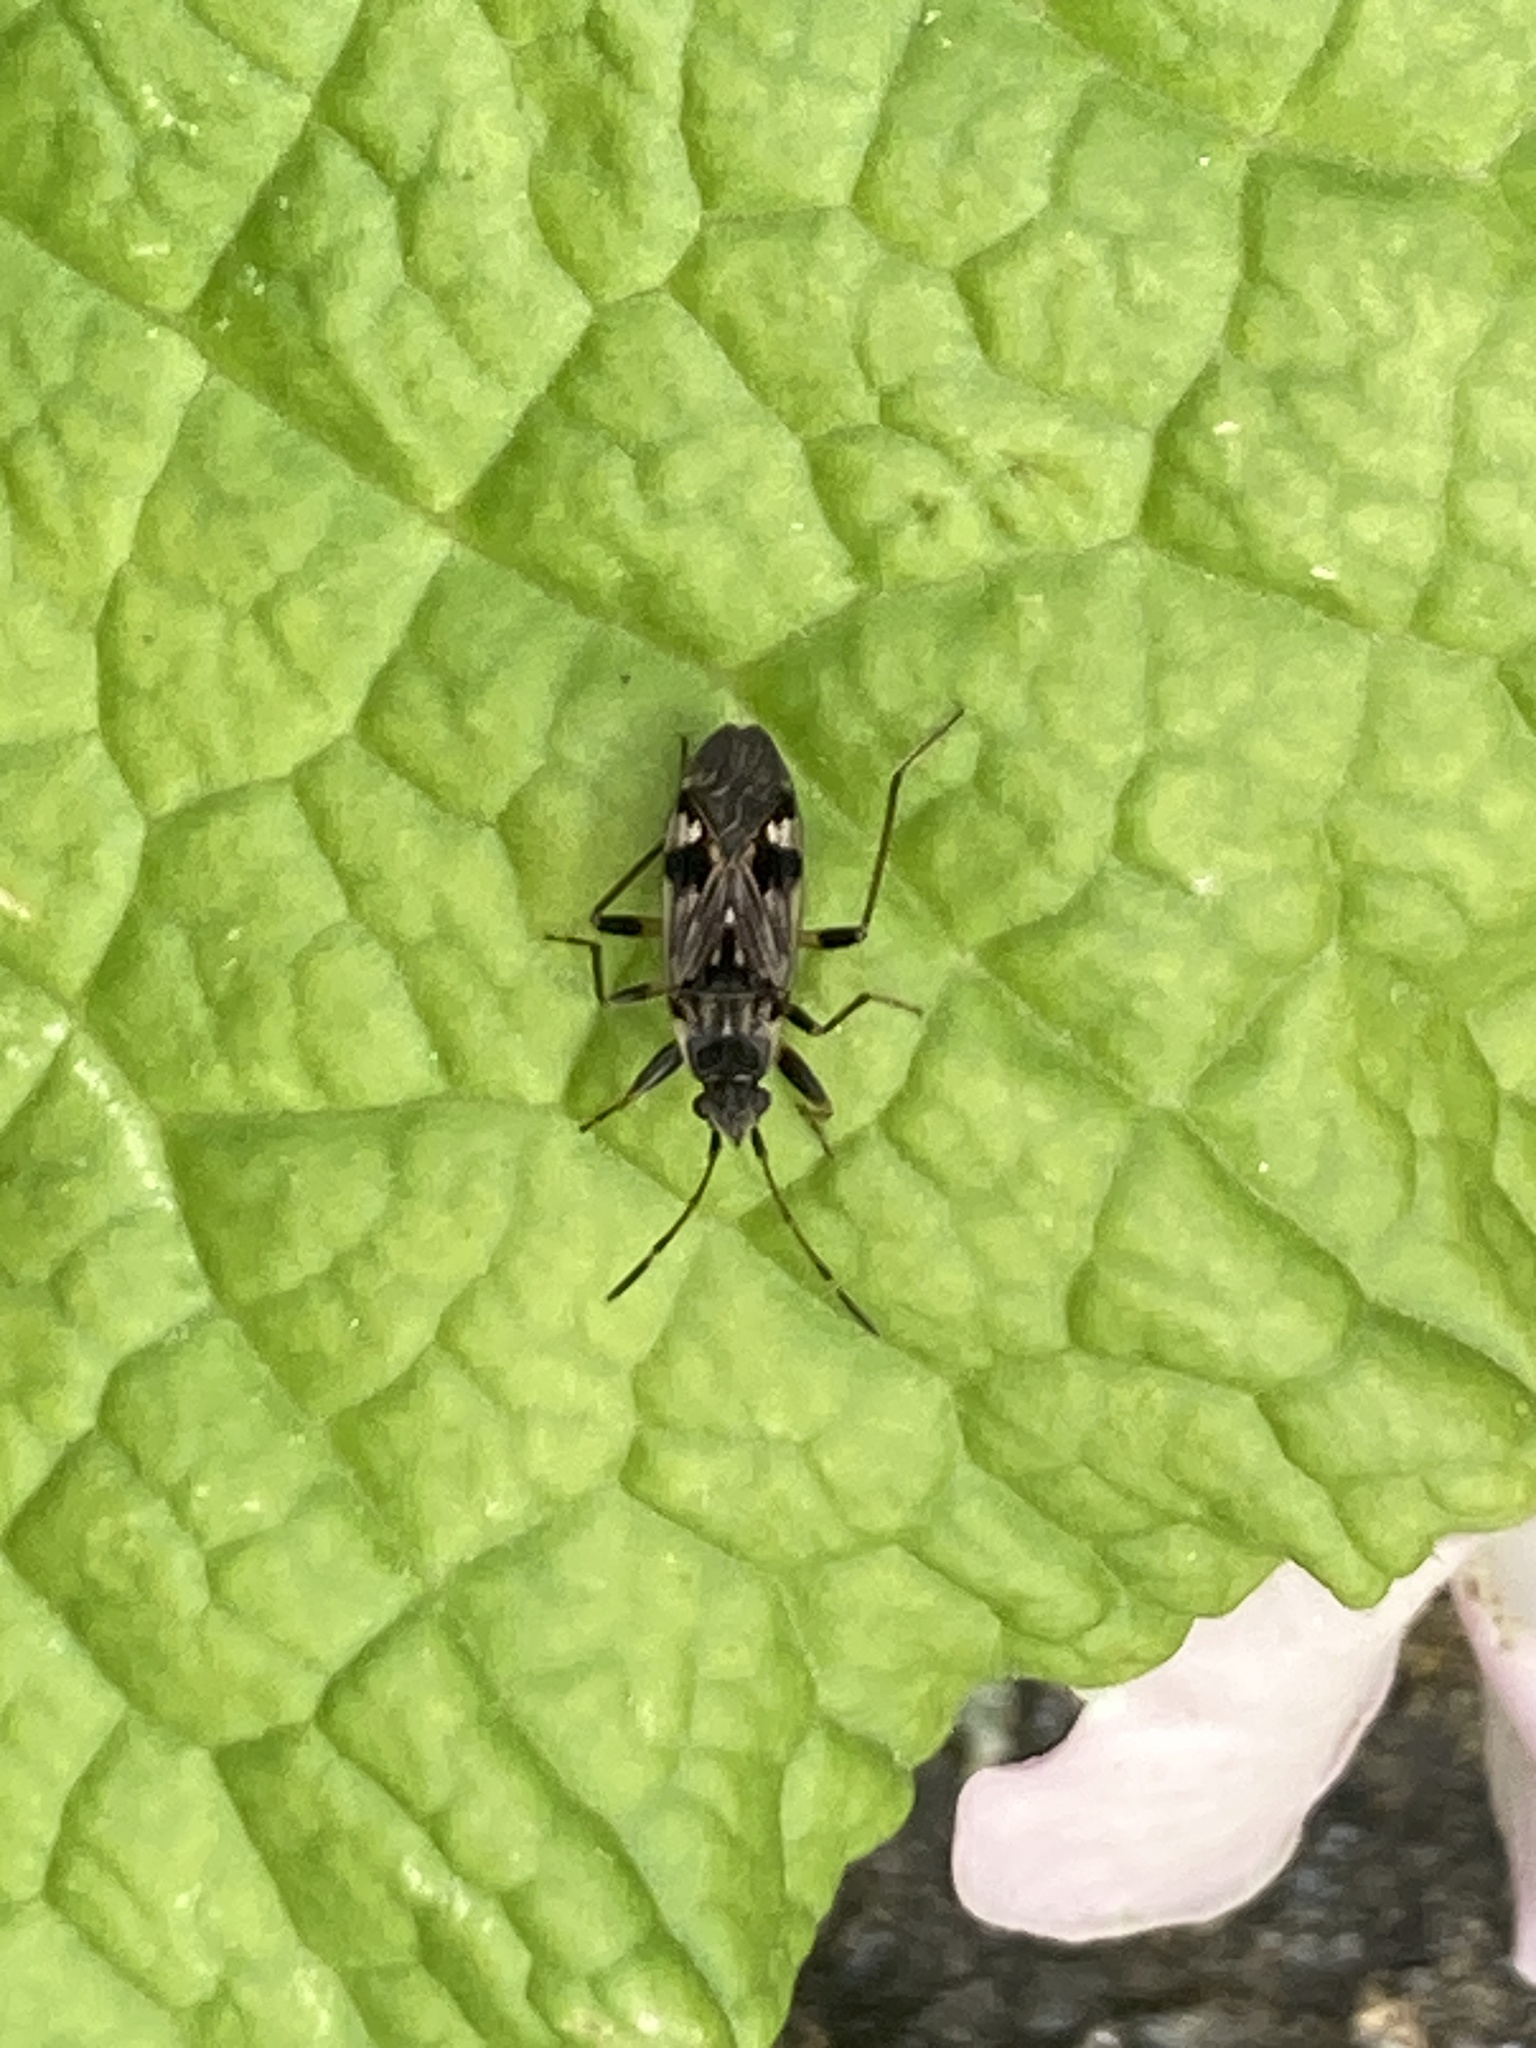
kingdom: Animalia
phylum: Arthropoda
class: Insecta
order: Hemiptera
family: Rhyparochromidae
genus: Beosus
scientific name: Beosus maritimus
